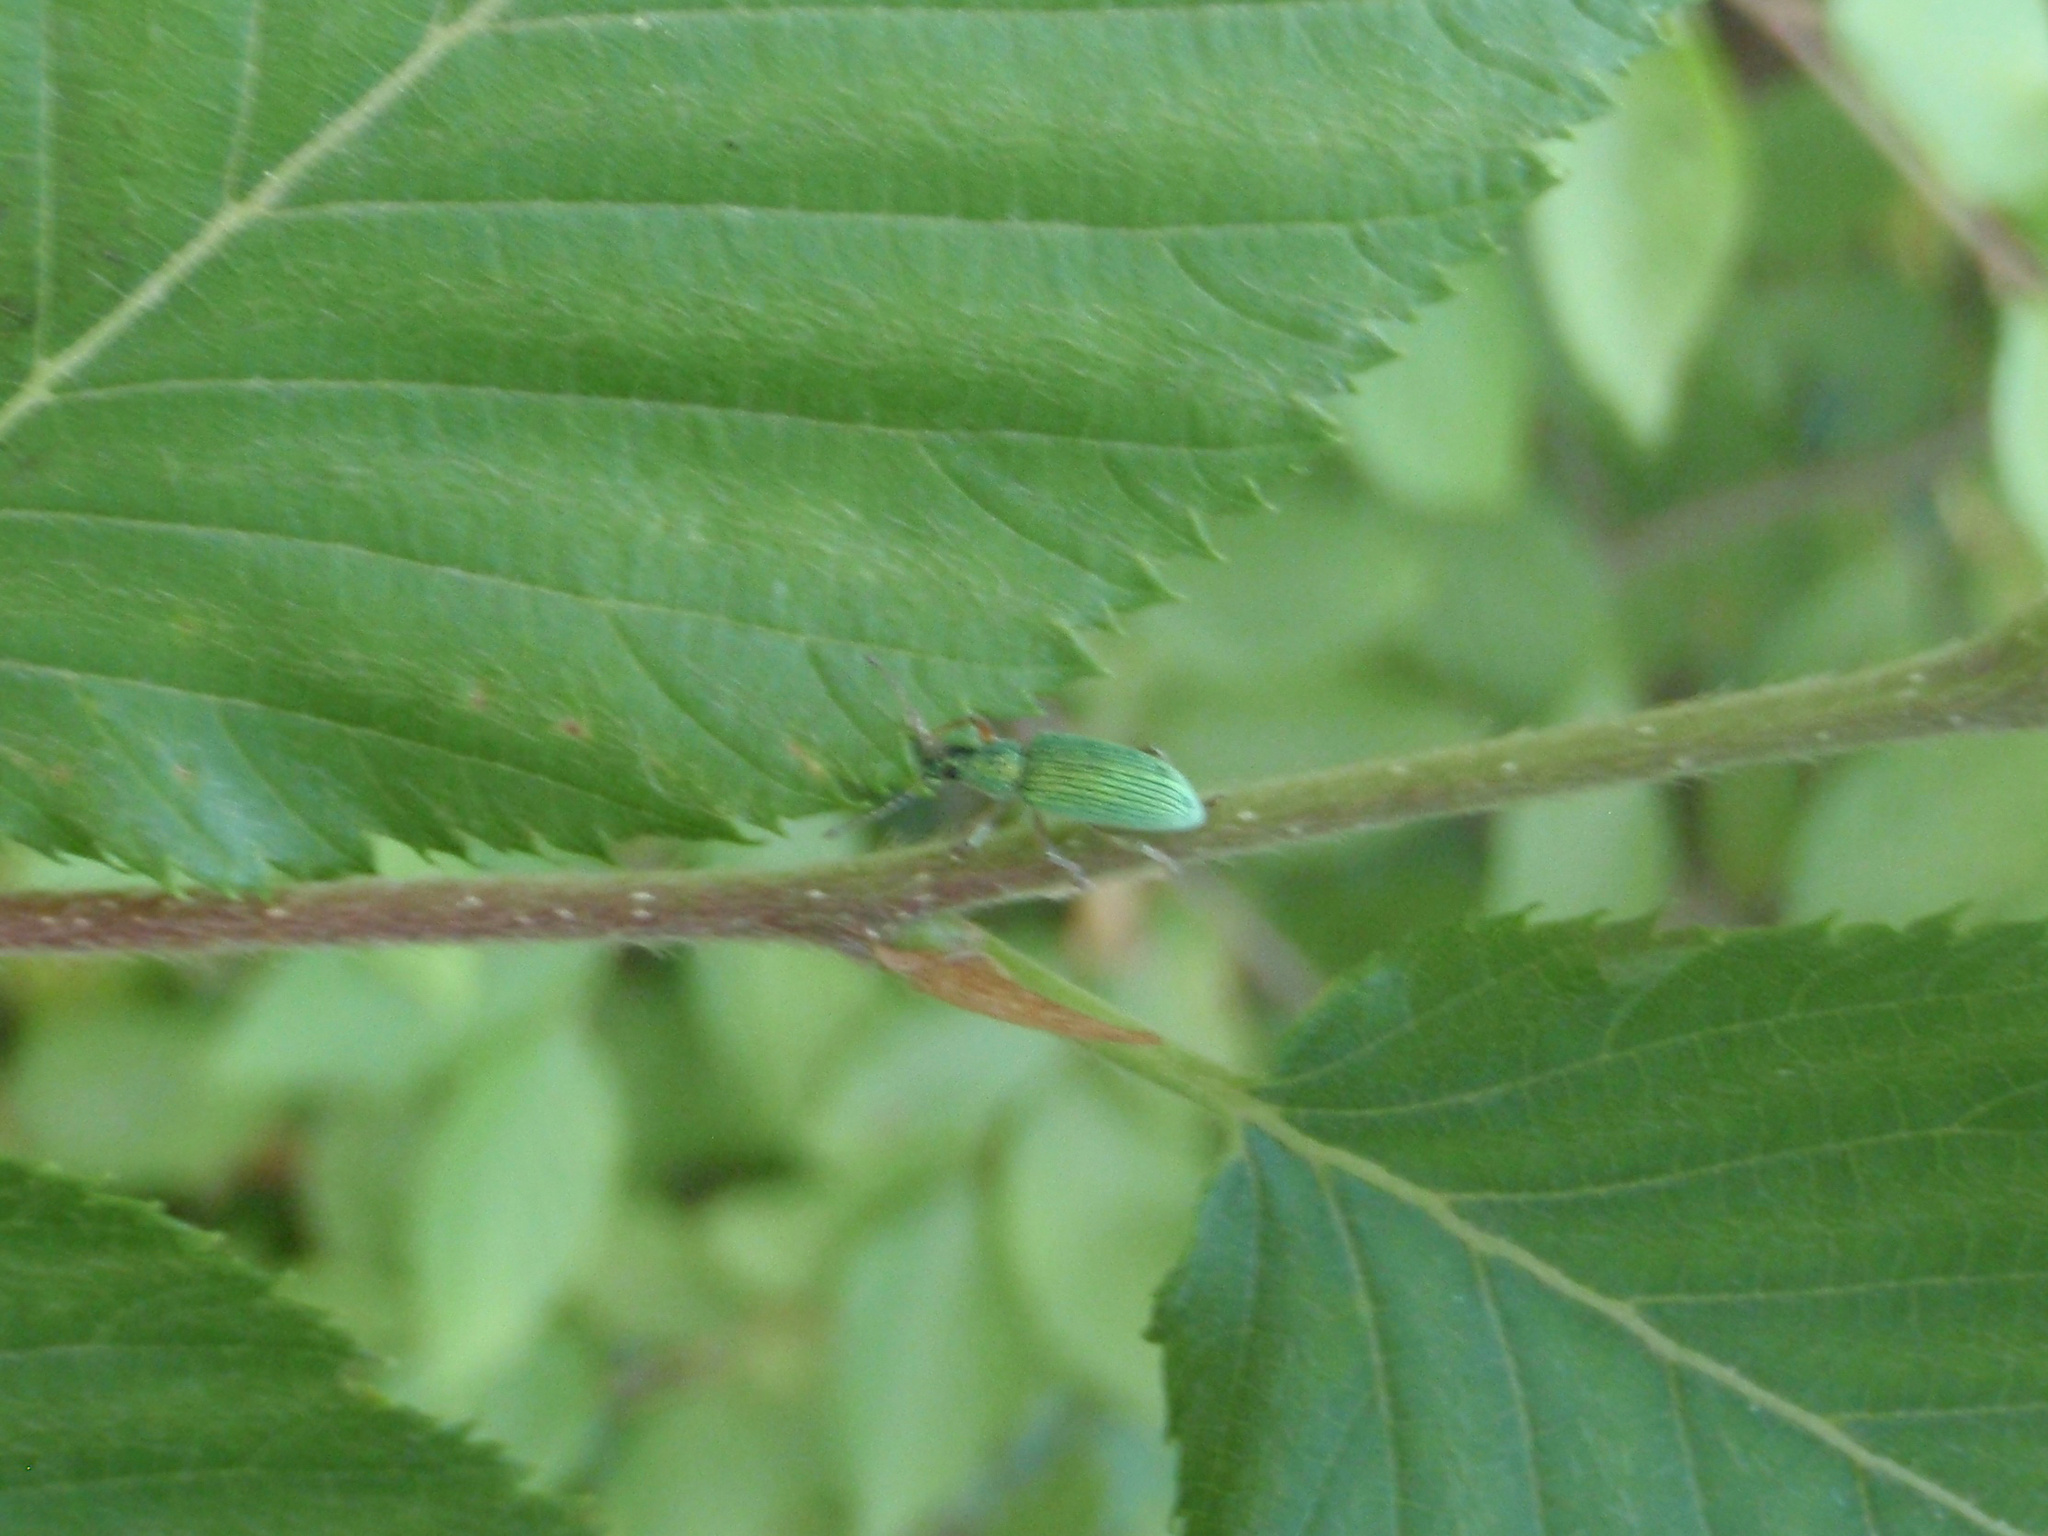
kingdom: Animalia
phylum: Arthropoda
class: Insecta
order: Coleoptera
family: Curculionidae
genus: Polydrusus
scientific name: Polydrusus
